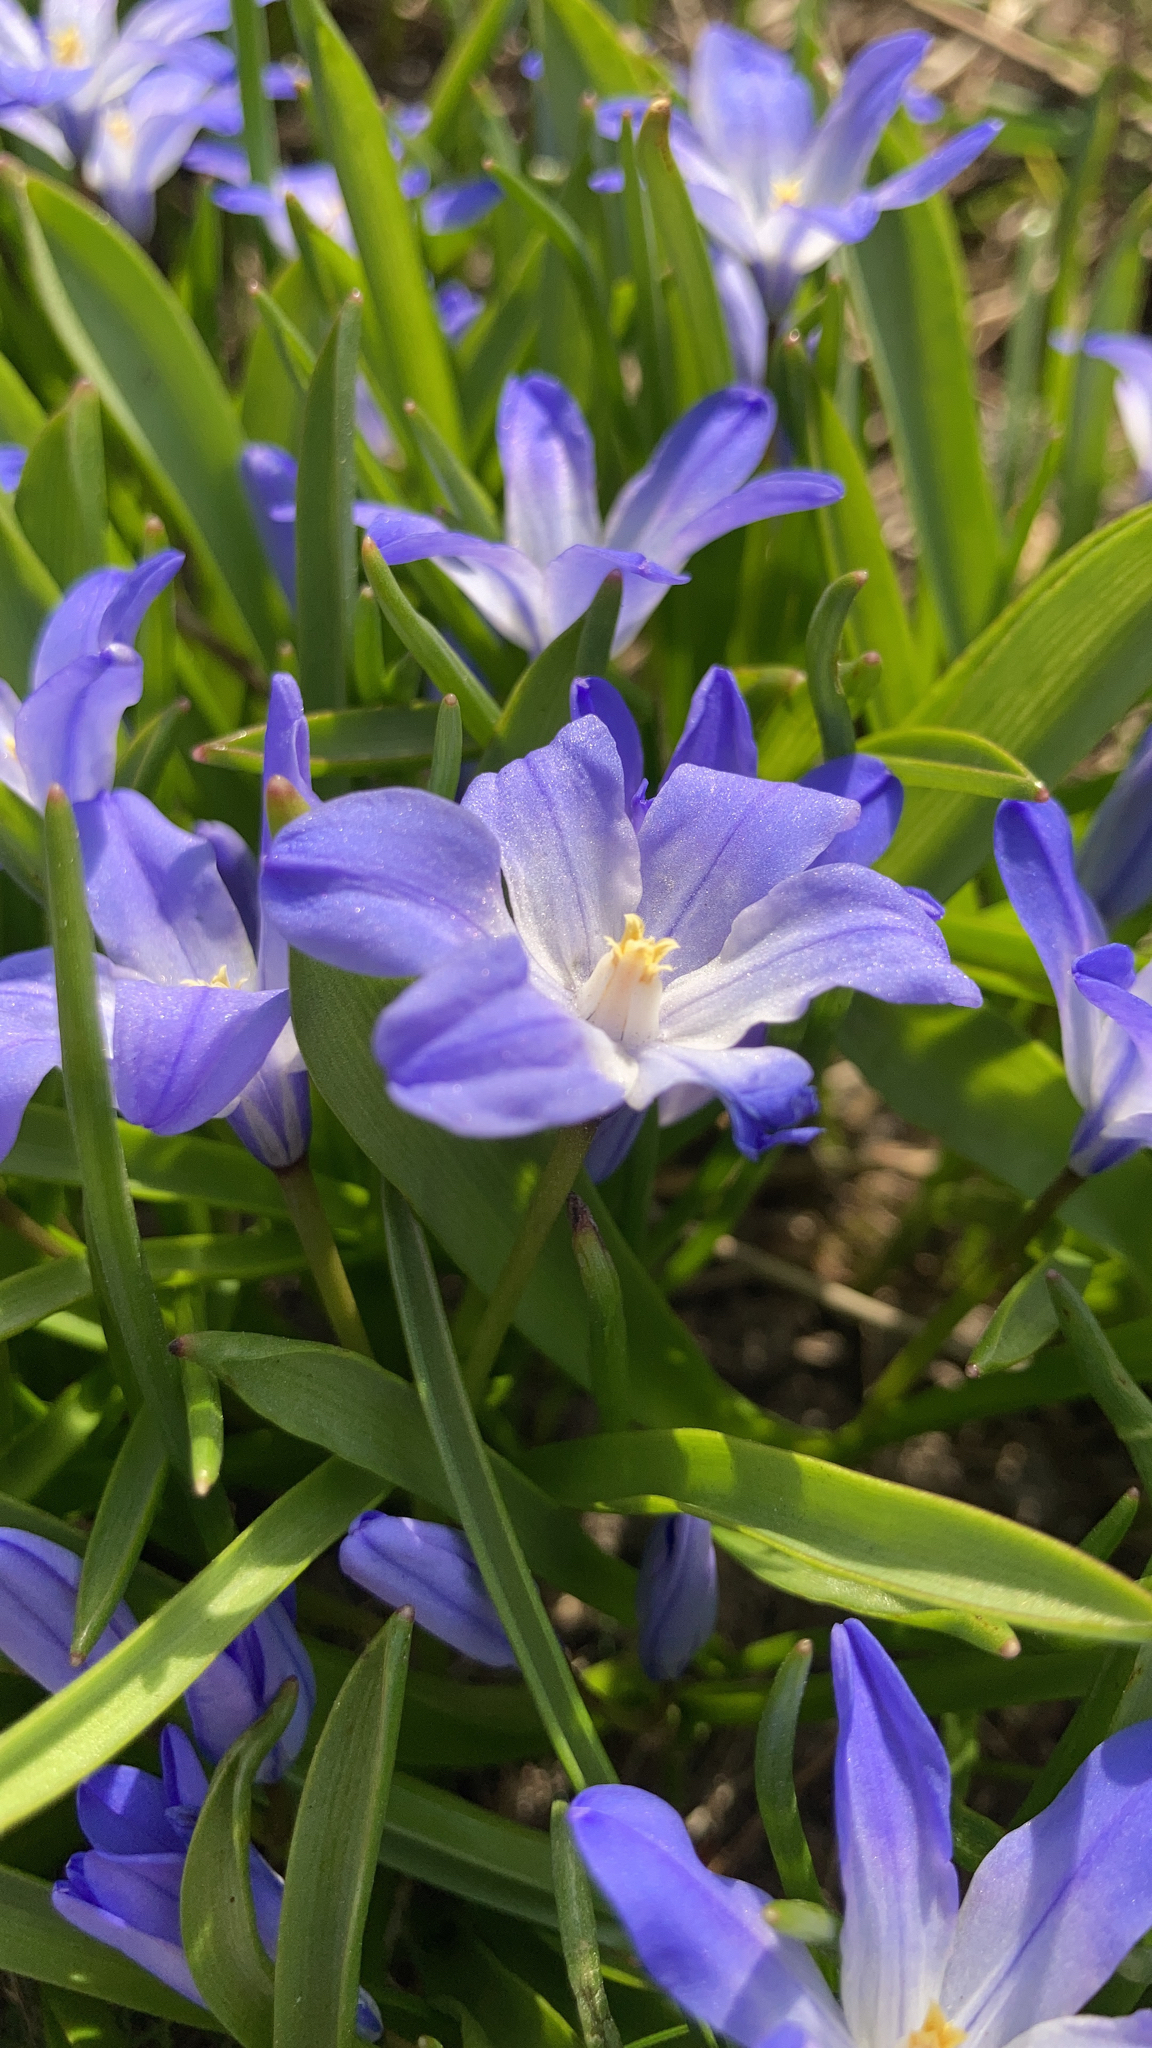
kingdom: Plantae
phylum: Tracheophyta
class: Liliopsida
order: Asparagales
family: Asparagaceae
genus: Scilla
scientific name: Scilla luciliae
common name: Boissier's glory-of-the-snow
